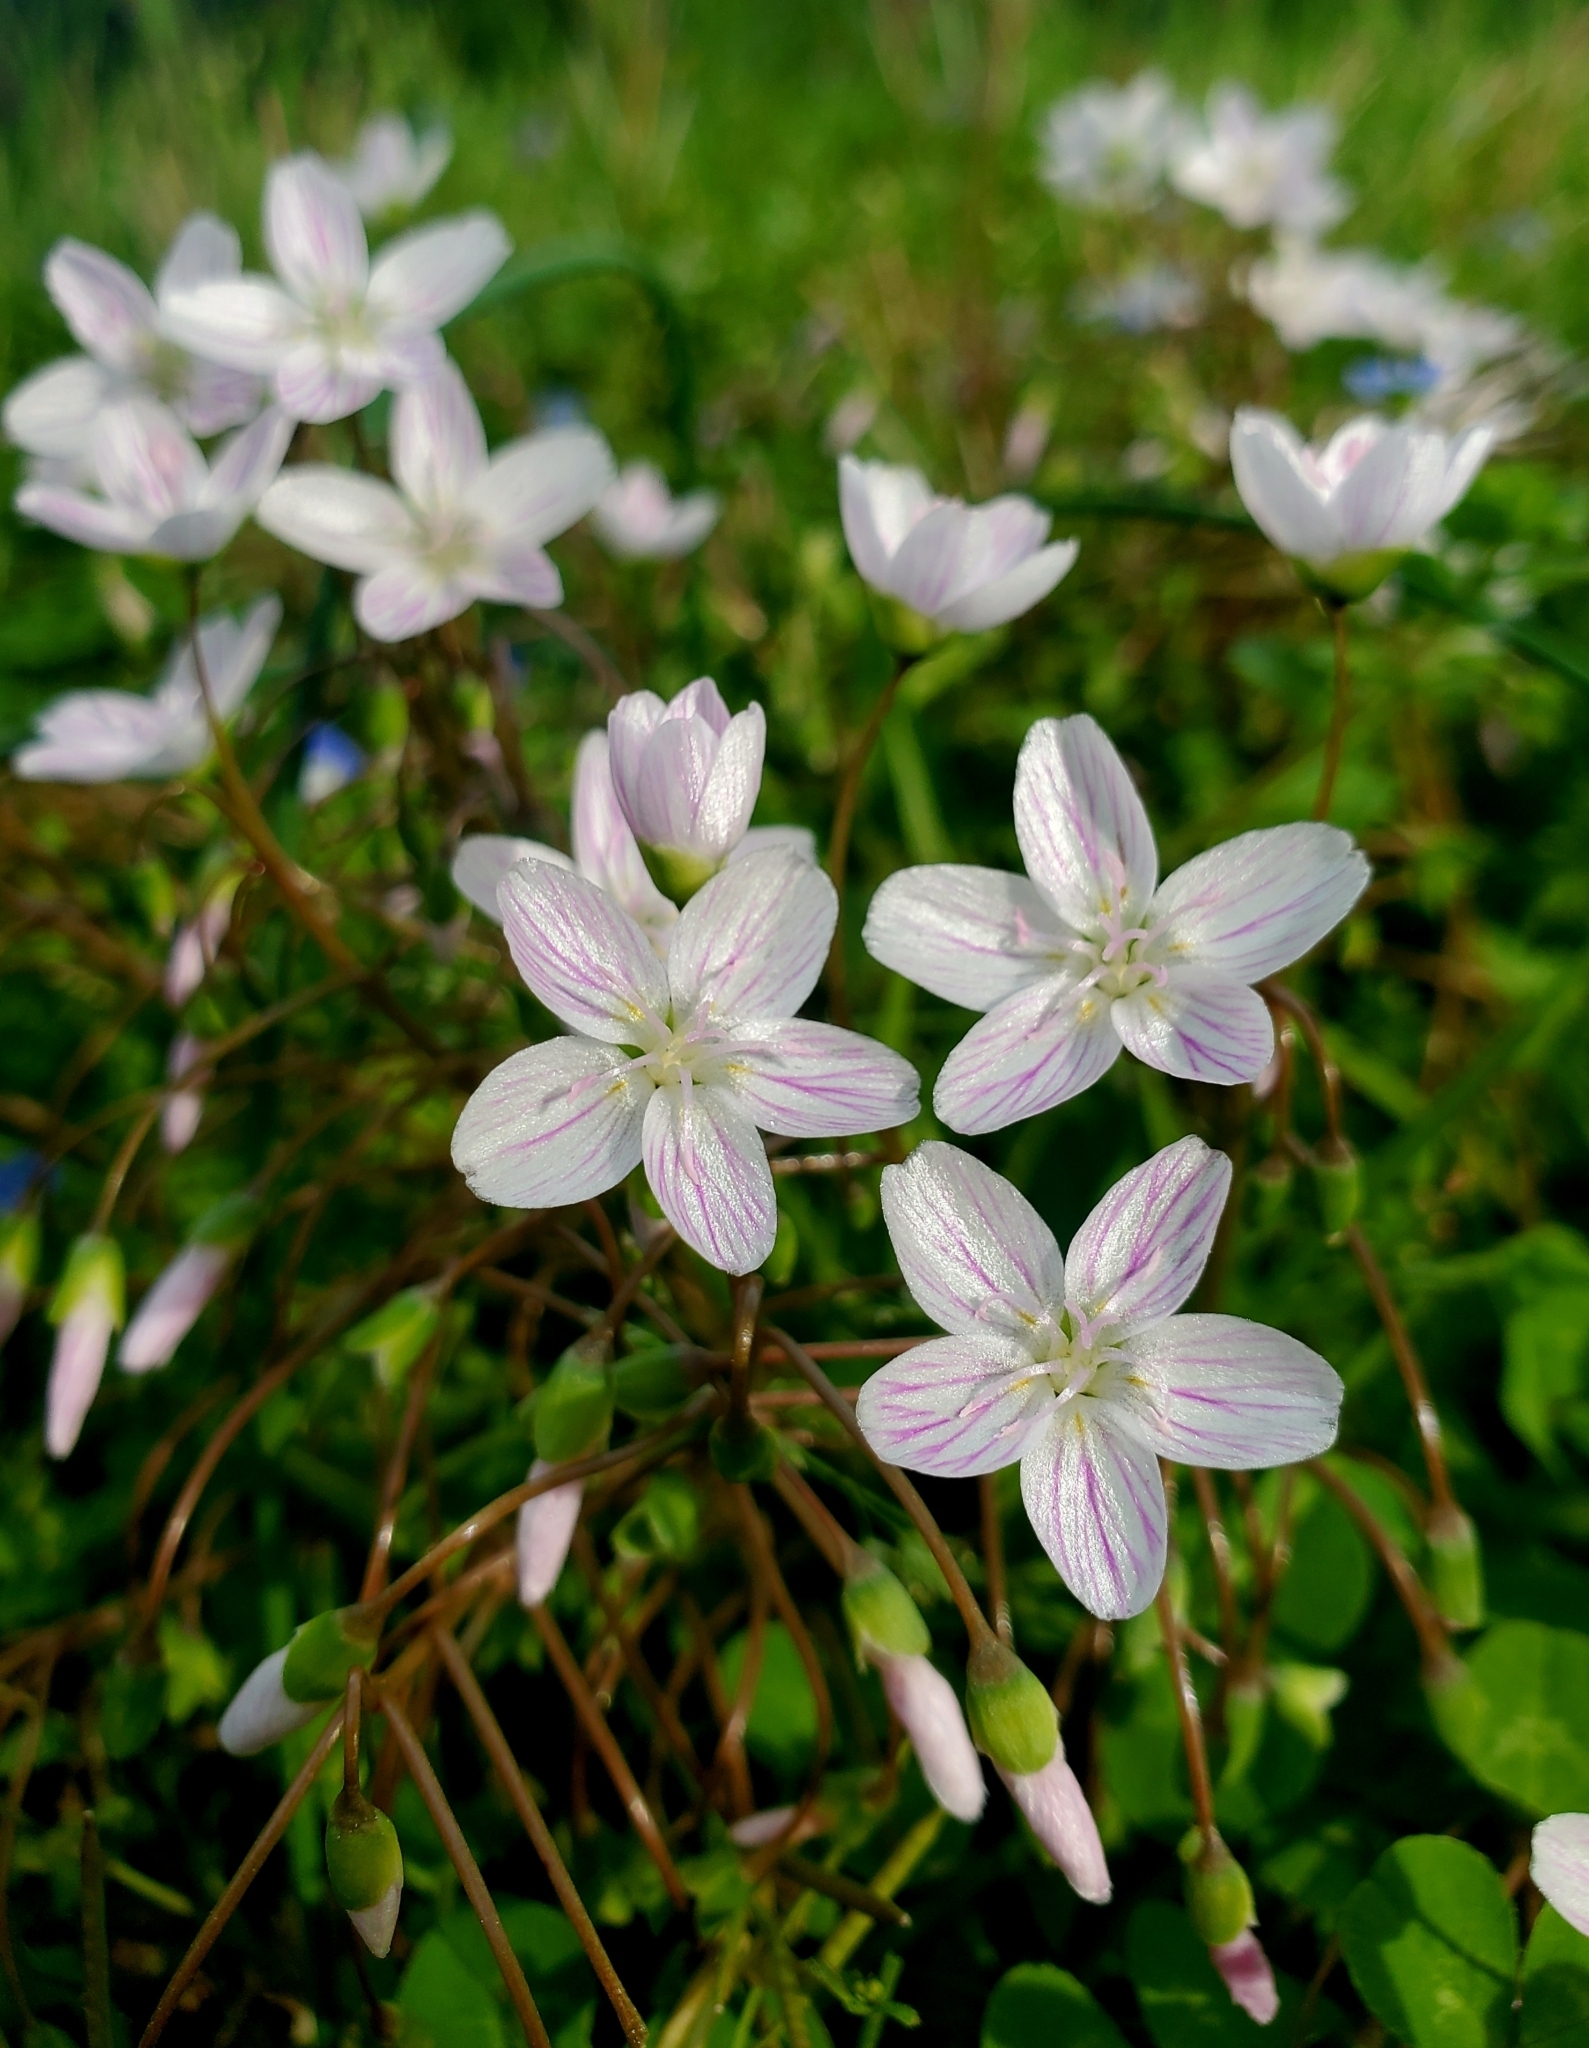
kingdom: Plantae
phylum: Tracheophyta
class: Magnoliopsida
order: Caryophyllales
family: Montiaceae
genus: Claytonia
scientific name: Claytonia virginica
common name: Virginia springbeauty
